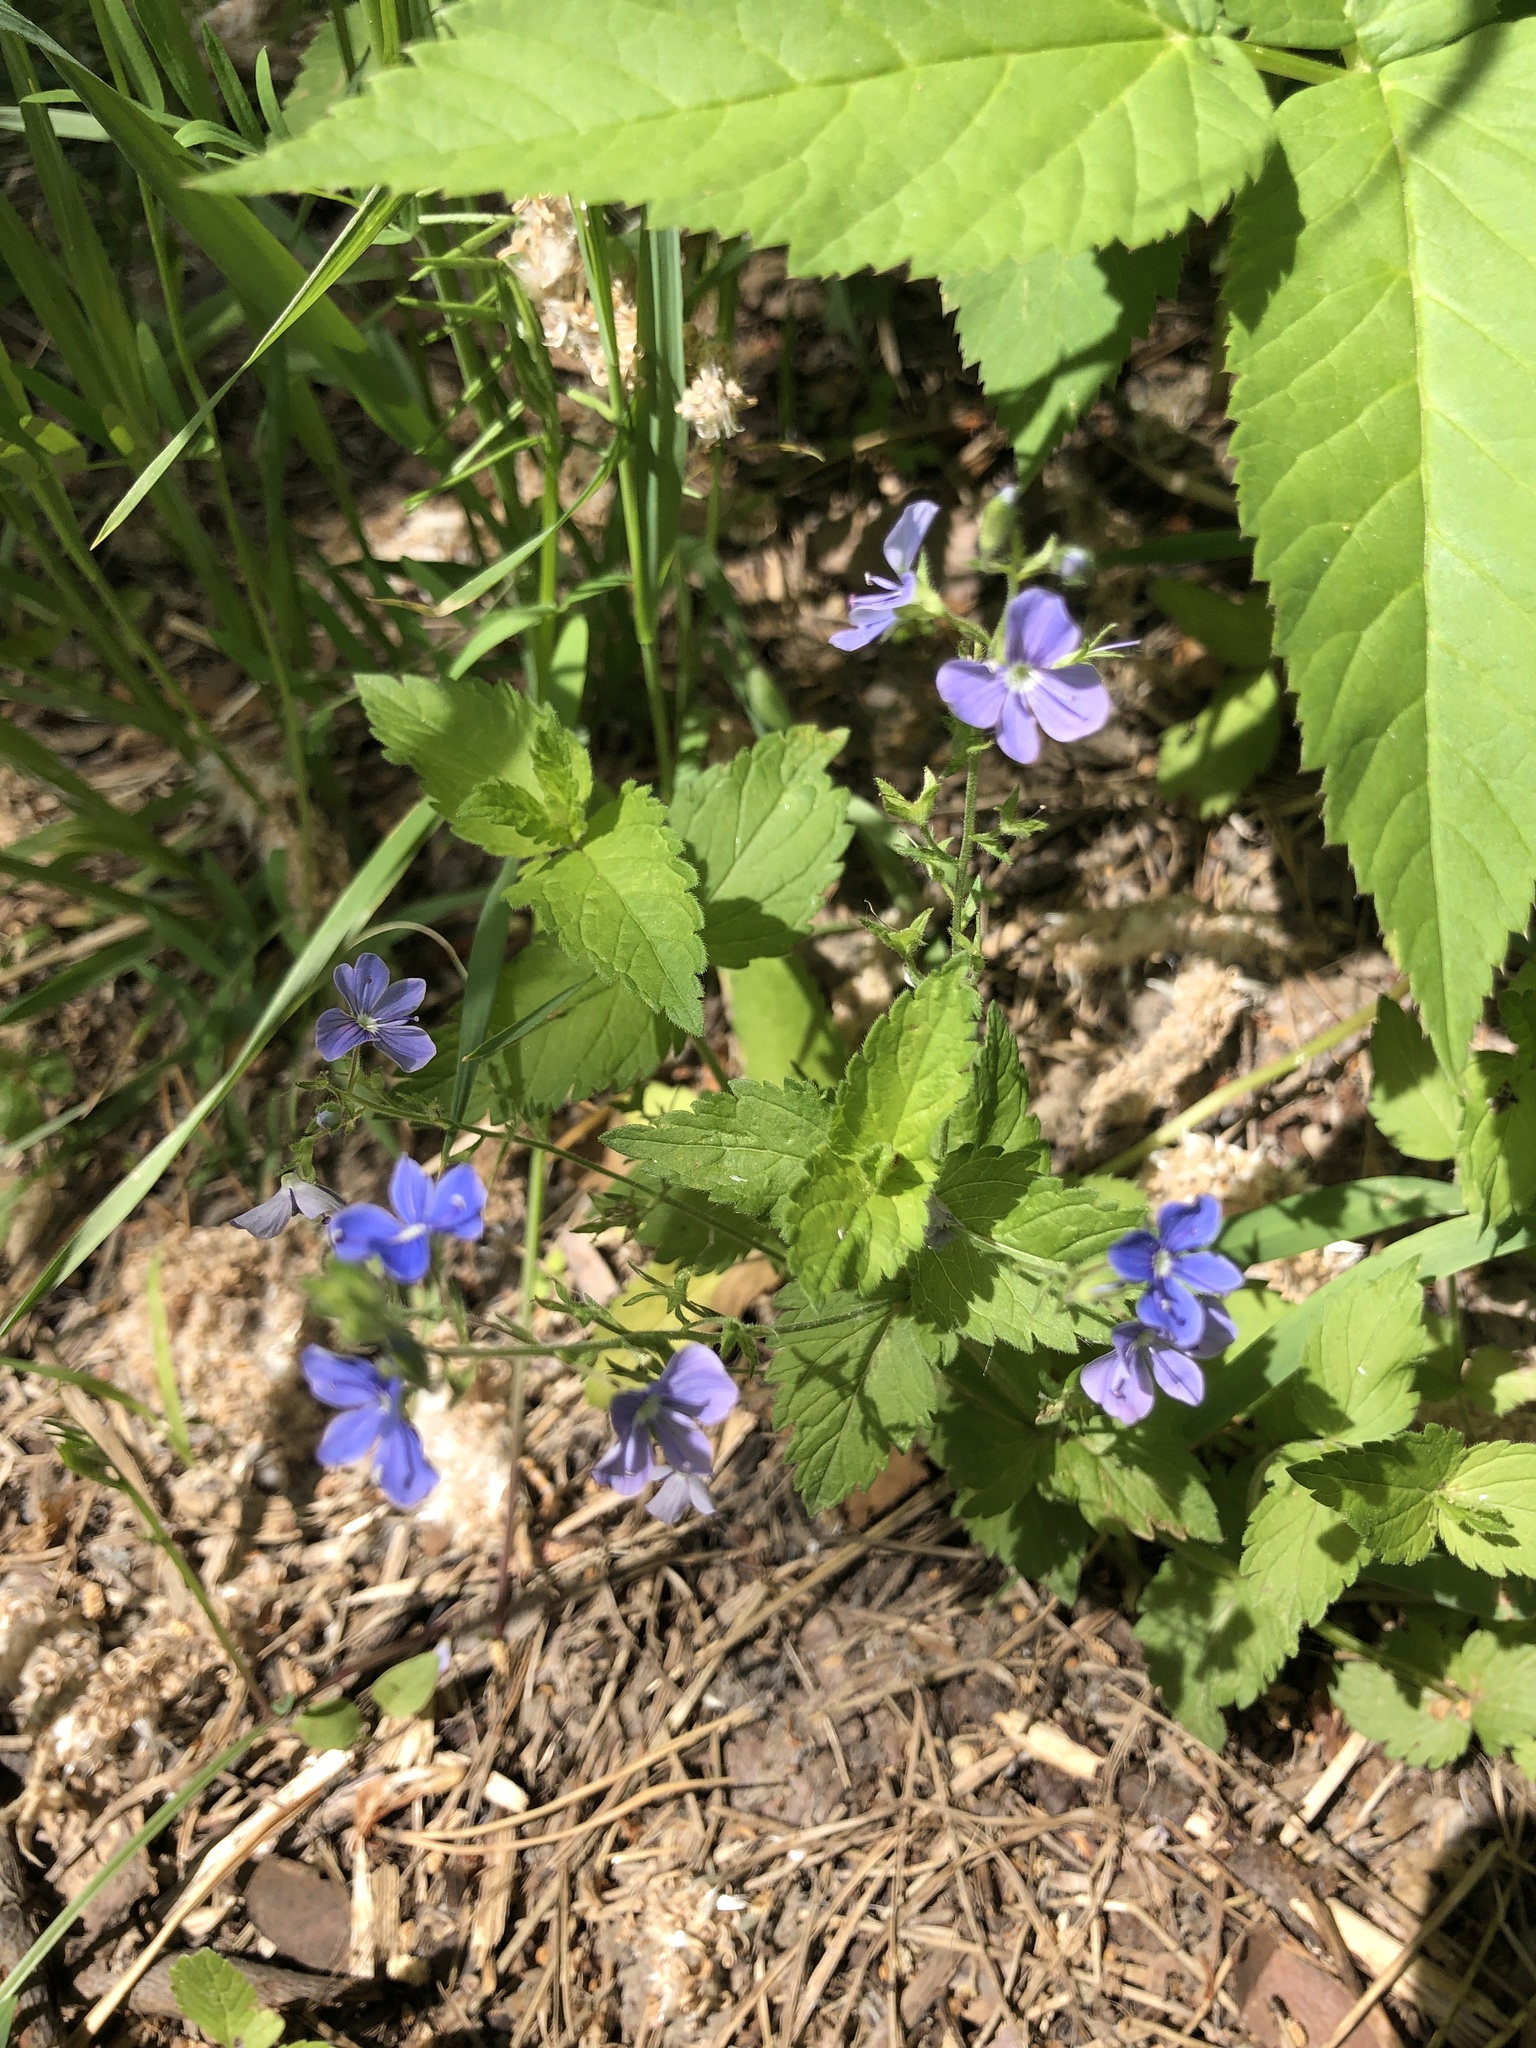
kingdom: Plantae
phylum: Tracheophyta
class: Magnoliopsida
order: Lamiales
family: Plantaginaceae
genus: Veronica
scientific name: Veronica chamaedrys
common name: Germander speedwell
